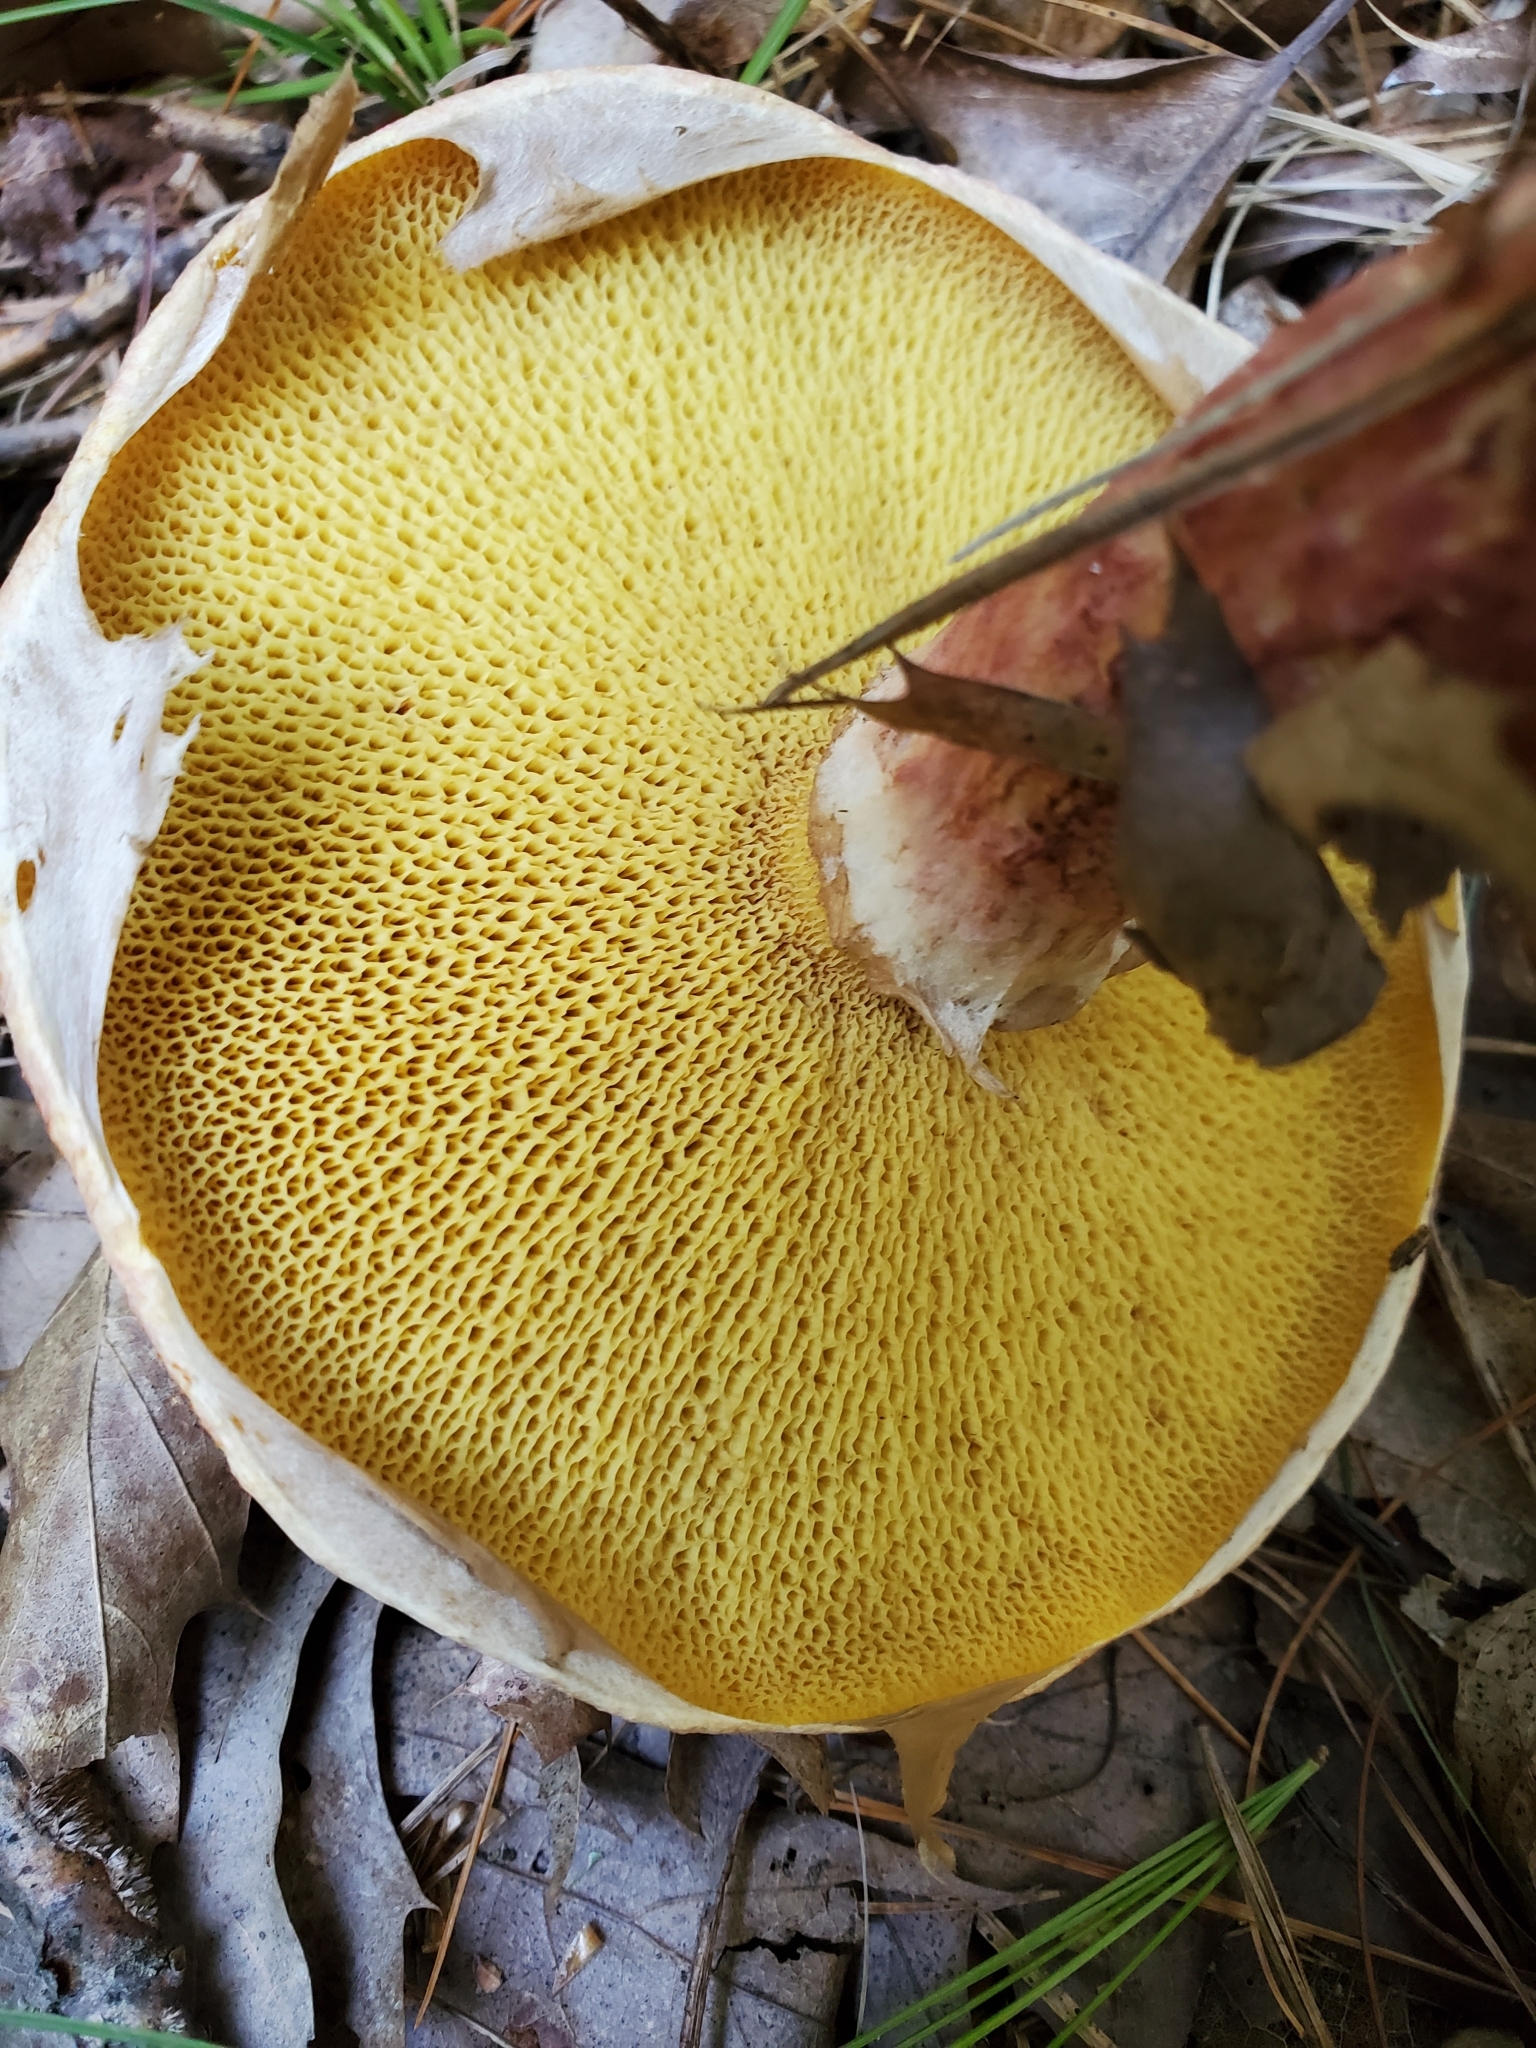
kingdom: Fungi
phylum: Basidiomycota
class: Agaricomycetes
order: Boletales
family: Suillaceae
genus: Suillus
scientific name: Suillus spraguei
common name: Painted suillus
